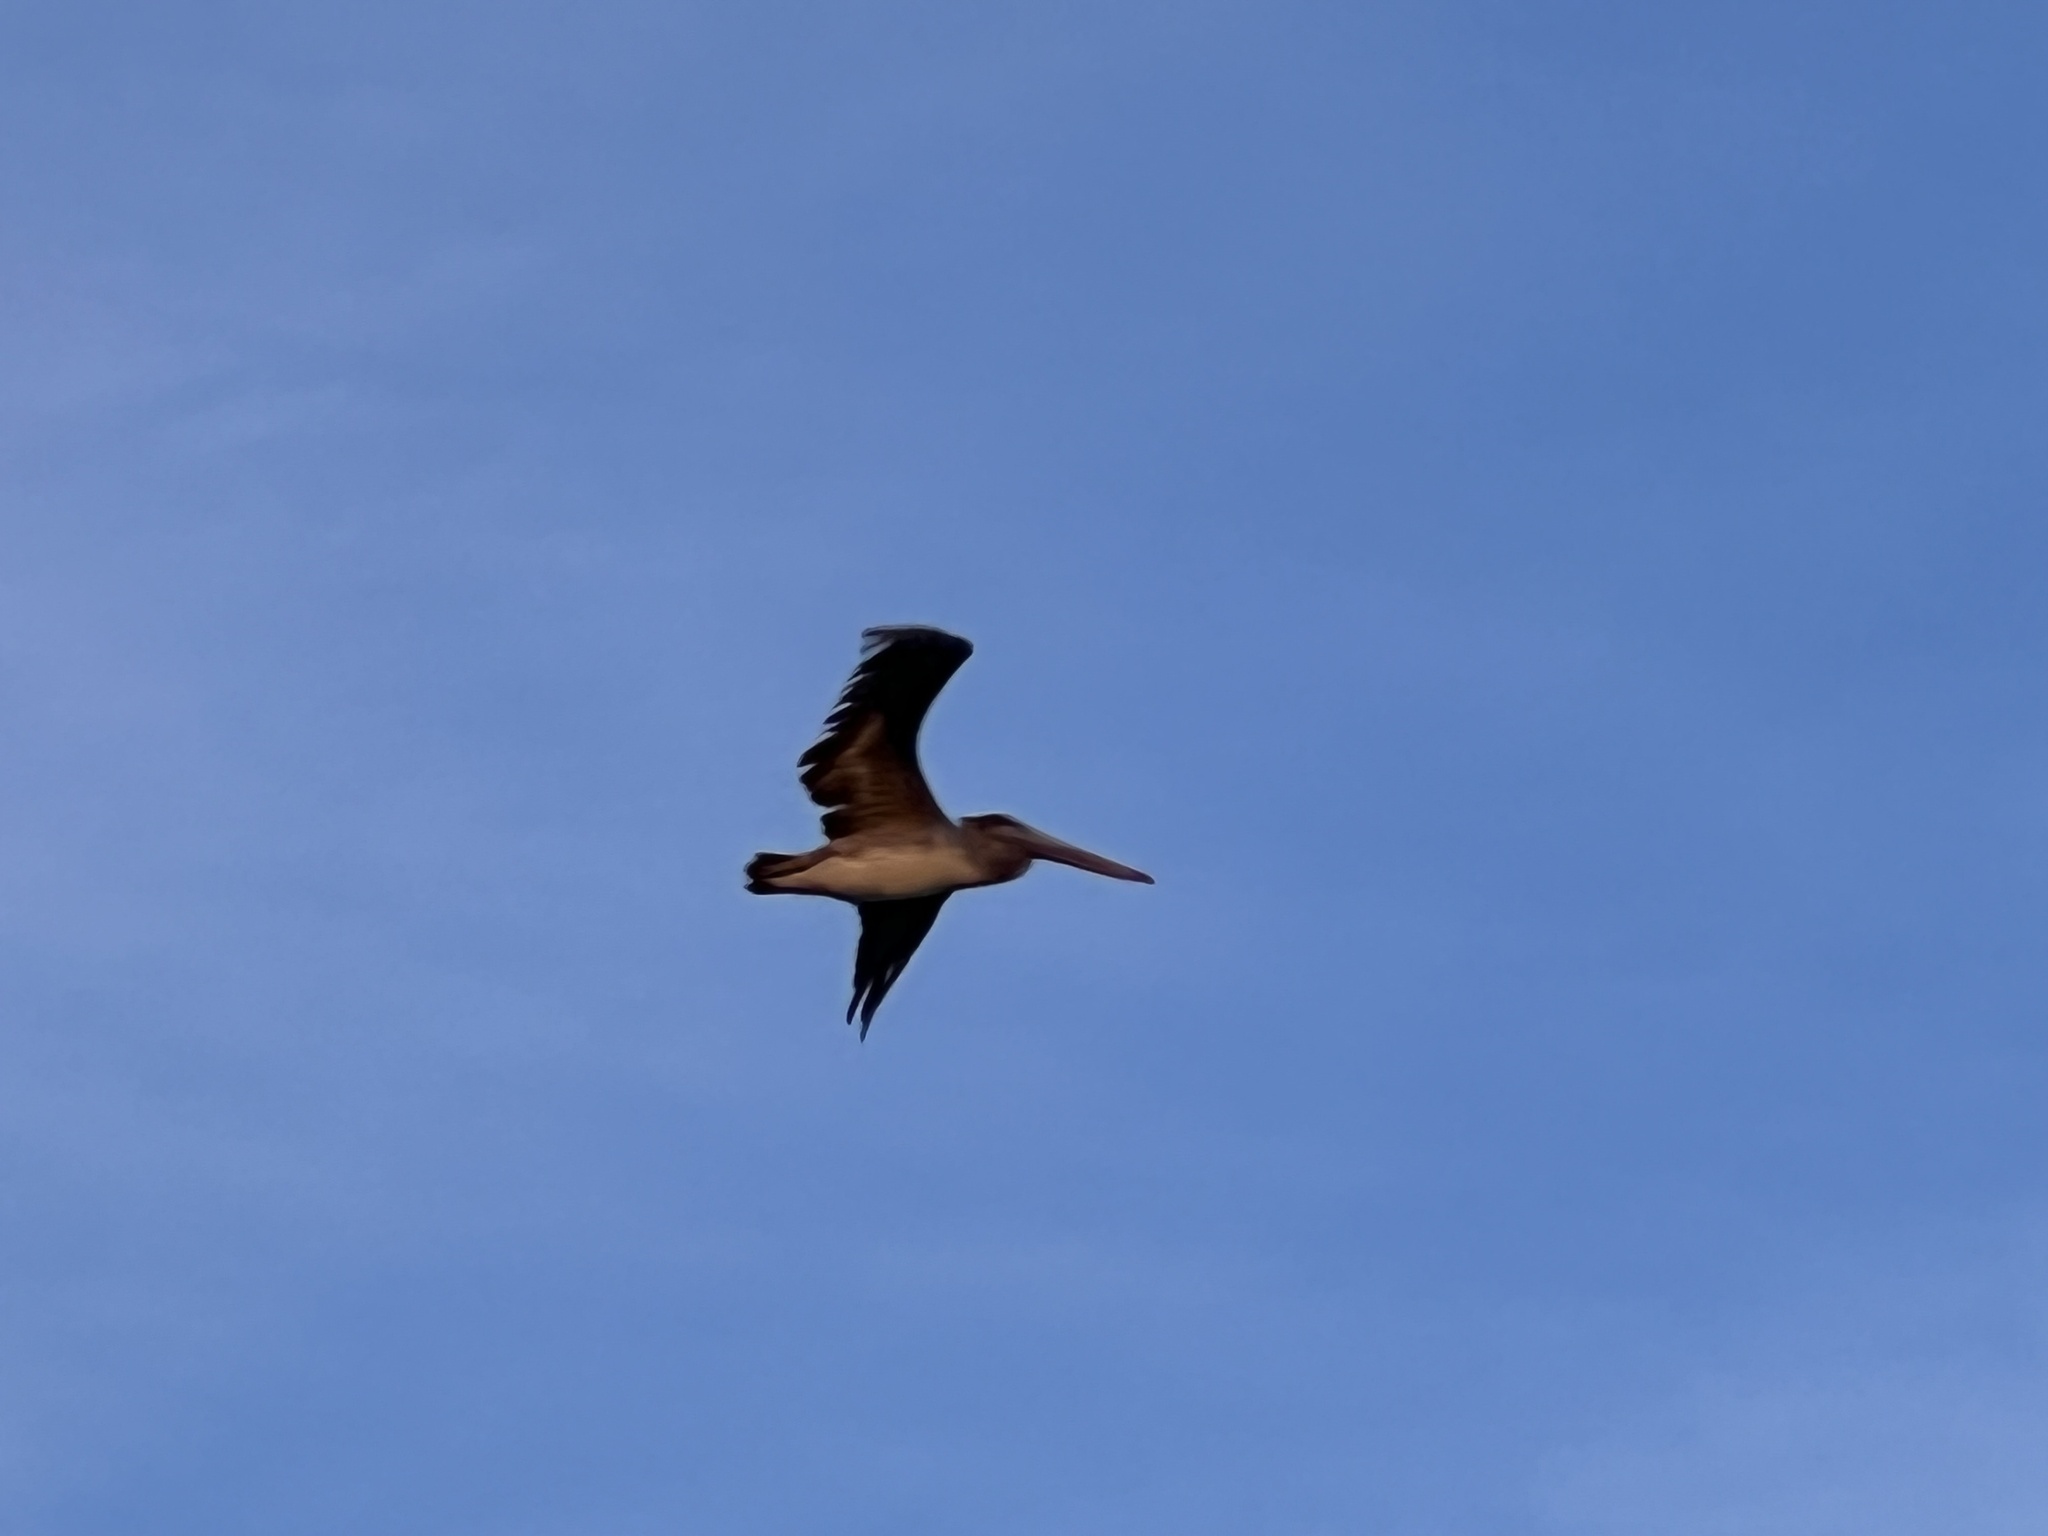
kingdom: Animalia
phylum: Chordata
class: Aves
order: Pelecaniformes
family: Pelecanidae
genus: Pelecanus
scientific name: Pelecanus occidentalis
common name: Brown pelican
